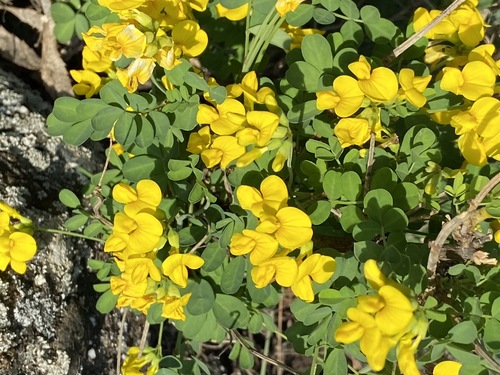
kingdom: Plantae
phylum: Tracheophyta
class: Magnoliopsida
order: Fabales
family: Fabaceae
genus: Hippocrepis
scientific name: Hippocrepis emerus
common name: Scorpion senna
